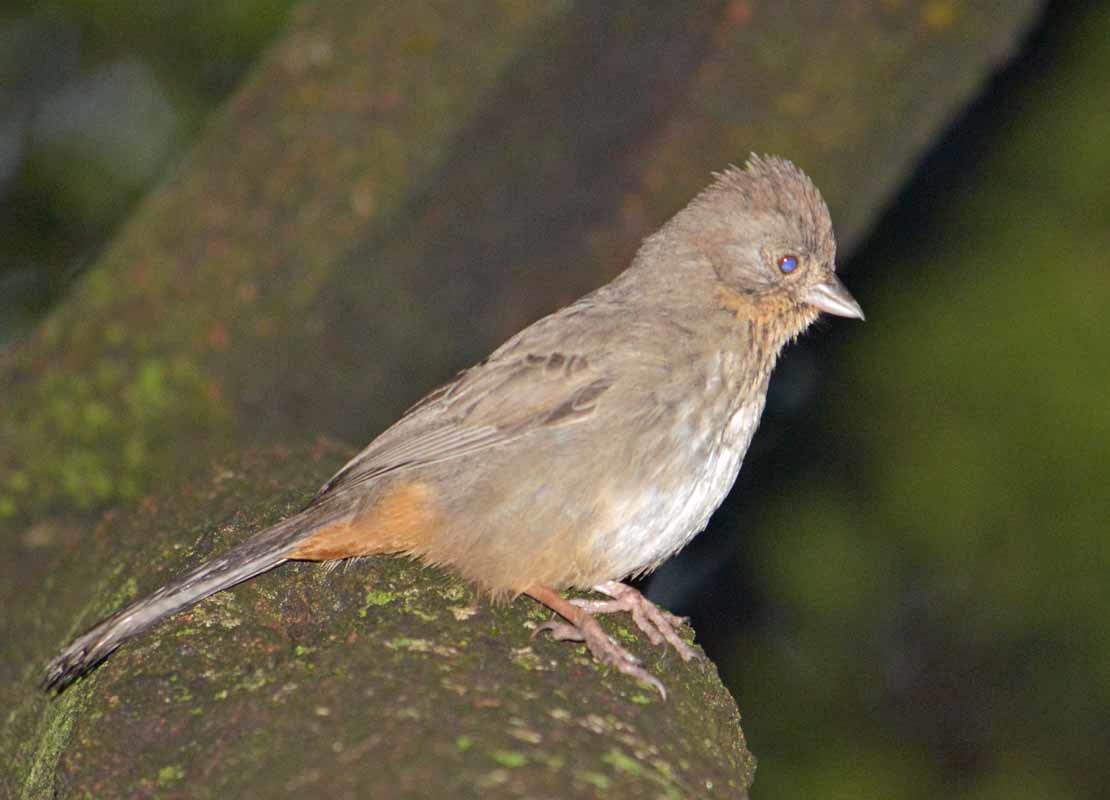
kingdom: Animalia
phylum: Chordata
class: Aves
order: Passeriformes
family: Passerellidae
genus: Melozone
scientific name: Melozone fusca
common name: Canyon towhee
